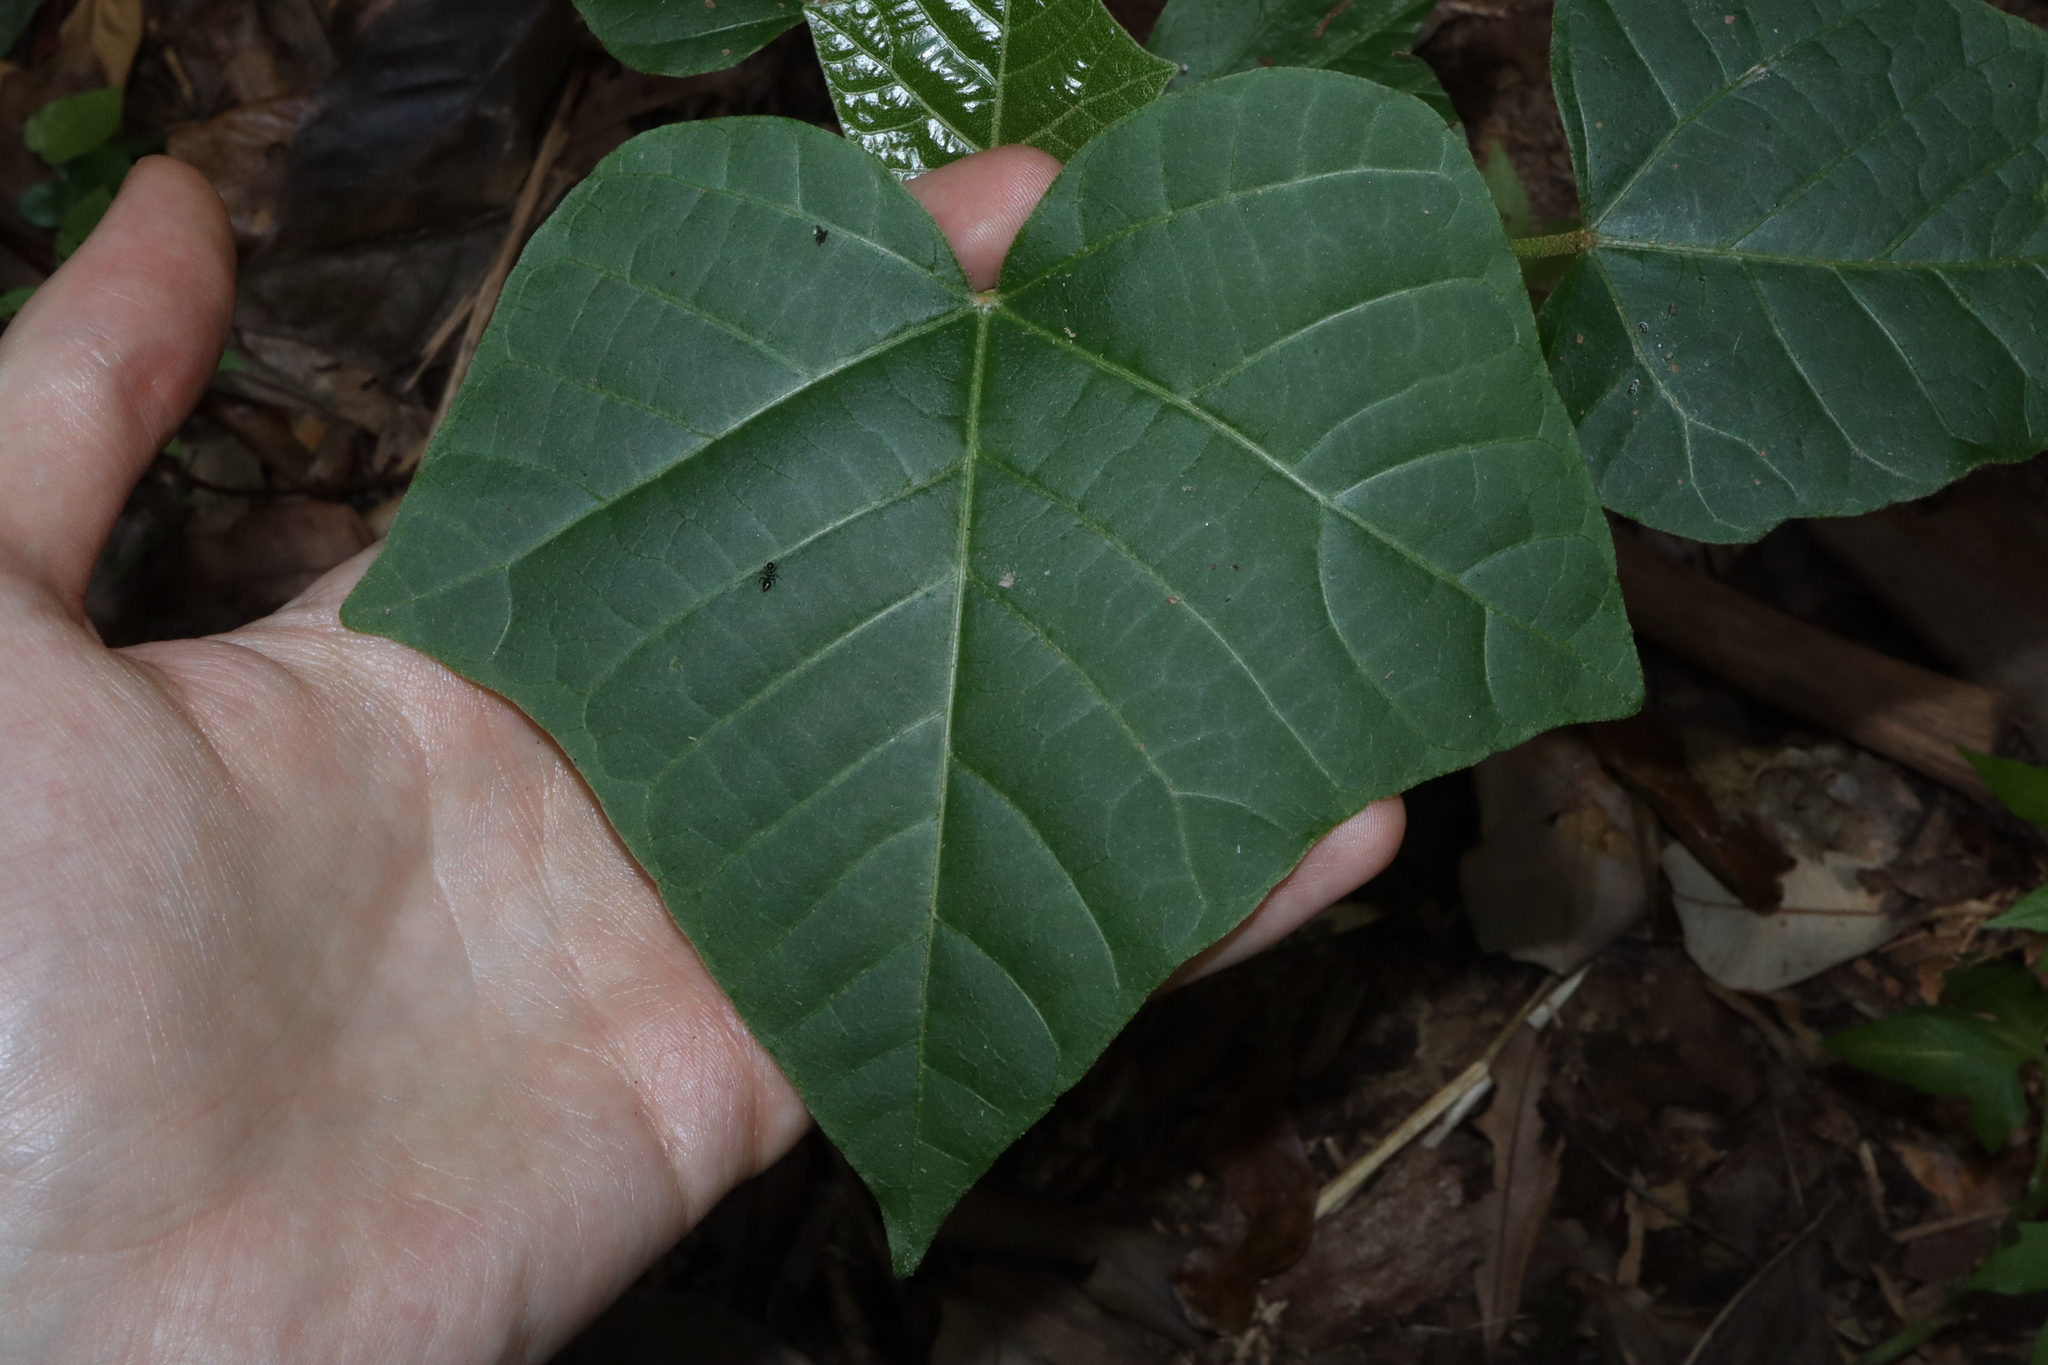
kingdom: Plantae
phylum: Tracheophyta
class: Magnoliopsida
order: Malpighiales
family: Euphorbiaceae
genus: Aleurites
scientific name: Aleurites rockinghamensis
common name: Candelnut
